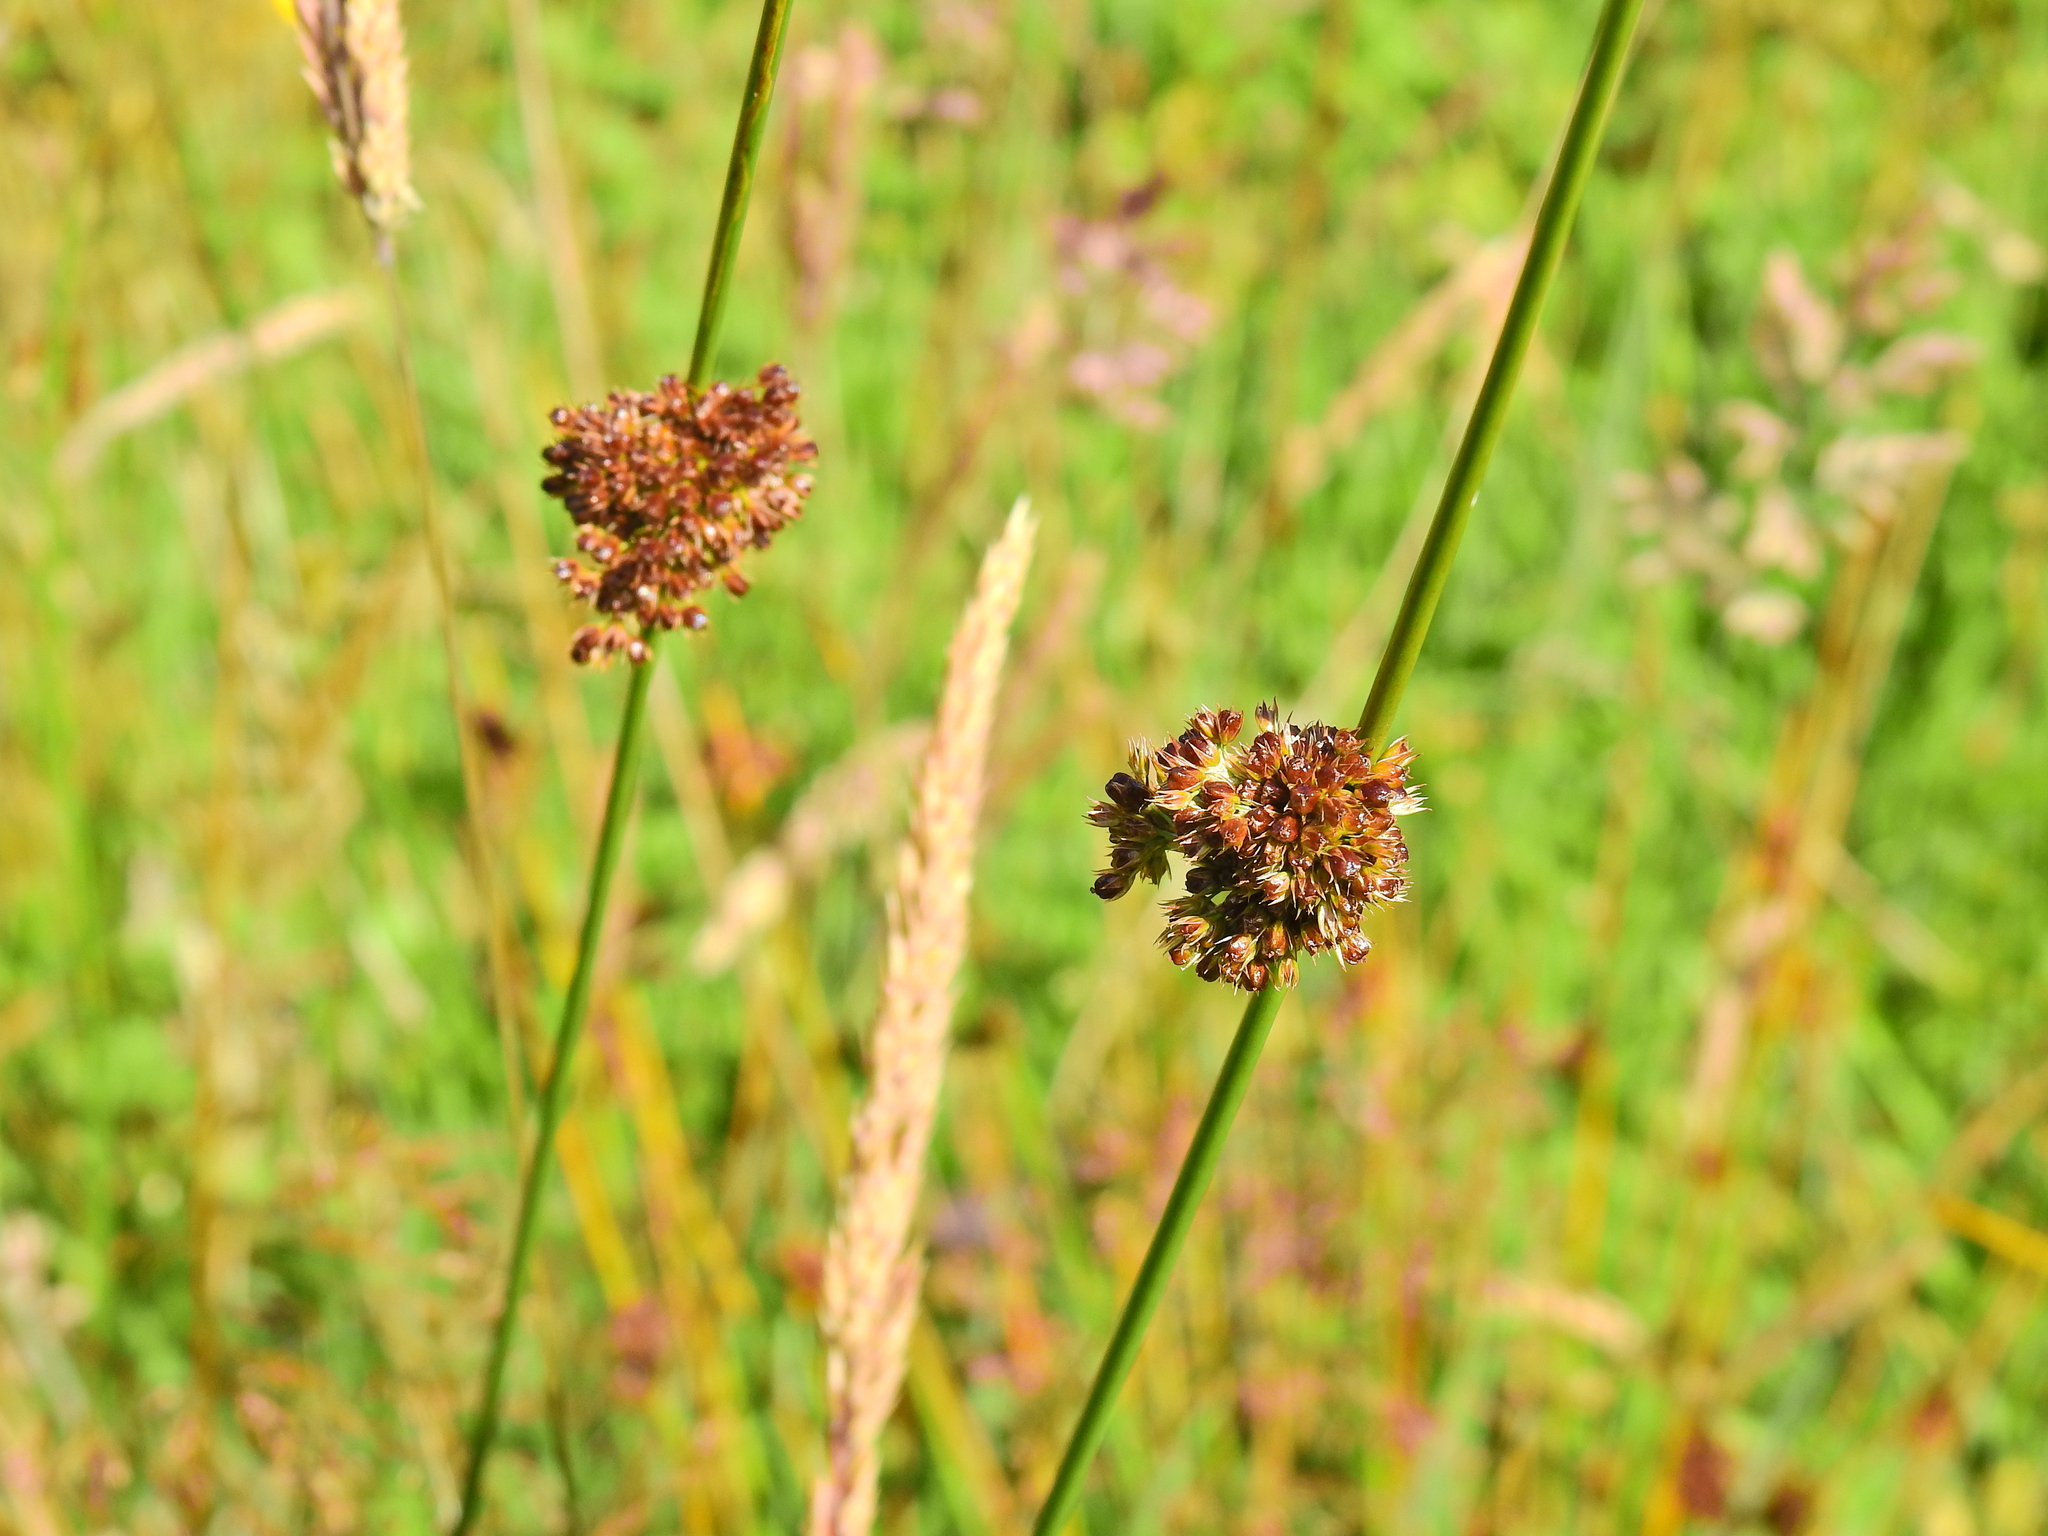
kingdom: Plantae
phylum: Tracheophyta
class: Liliopsida
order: Poales
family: Juncaceae
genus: Juncus
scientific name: Juncus effusus
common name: Soft rush
